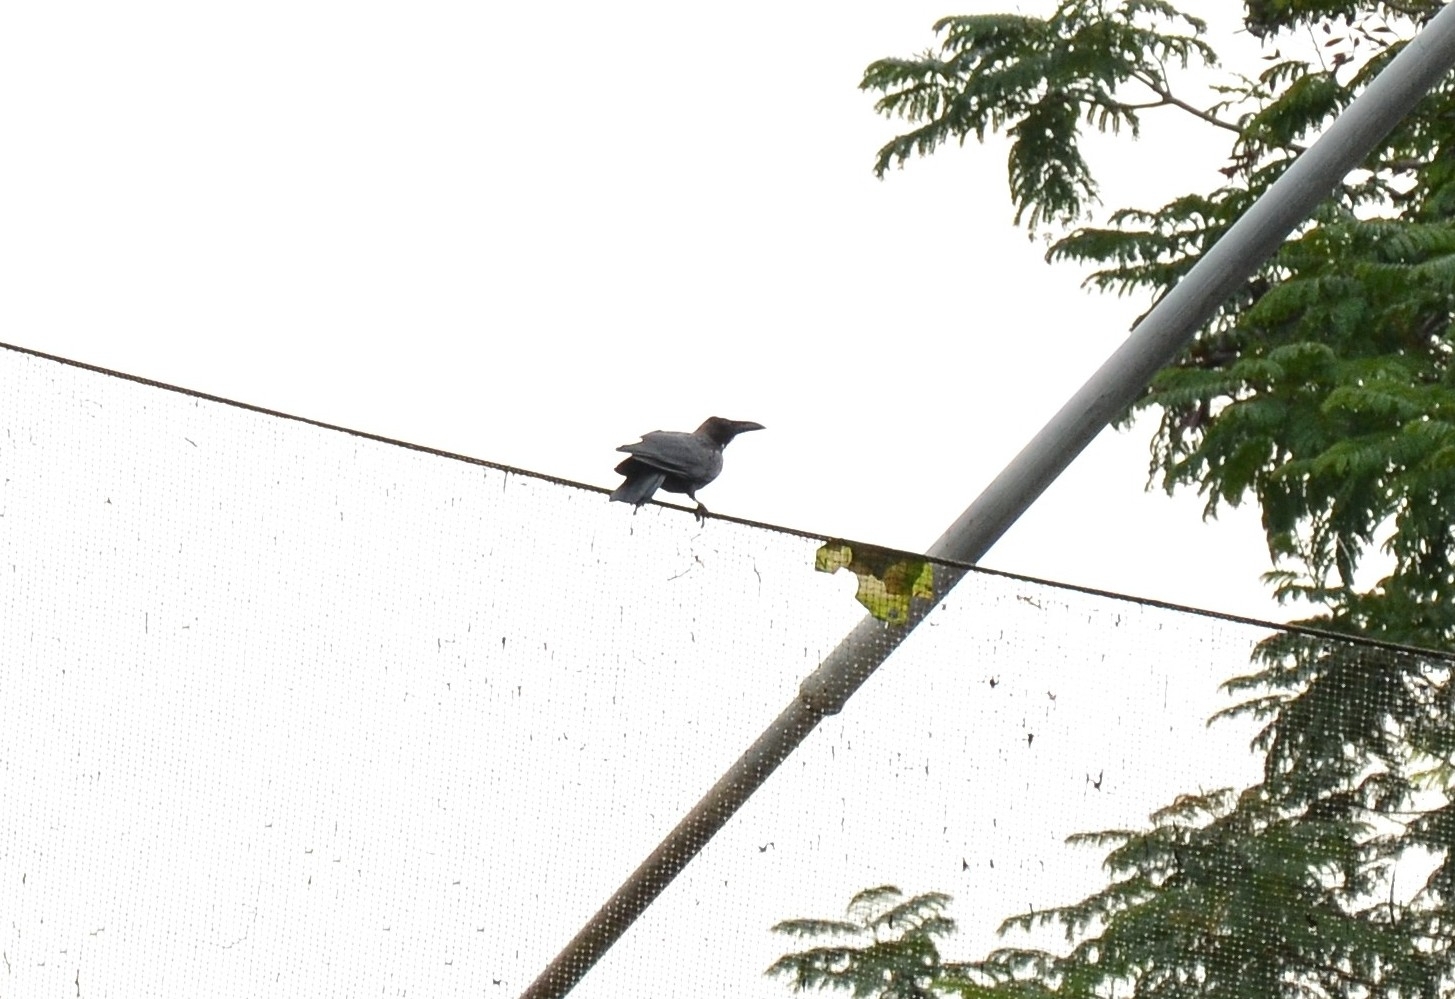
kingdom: Animalia
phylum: Chordata
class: Aves
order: Passeriformes
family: Corvidae
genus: Corvus
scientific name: Corvus splendens
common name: House crow
